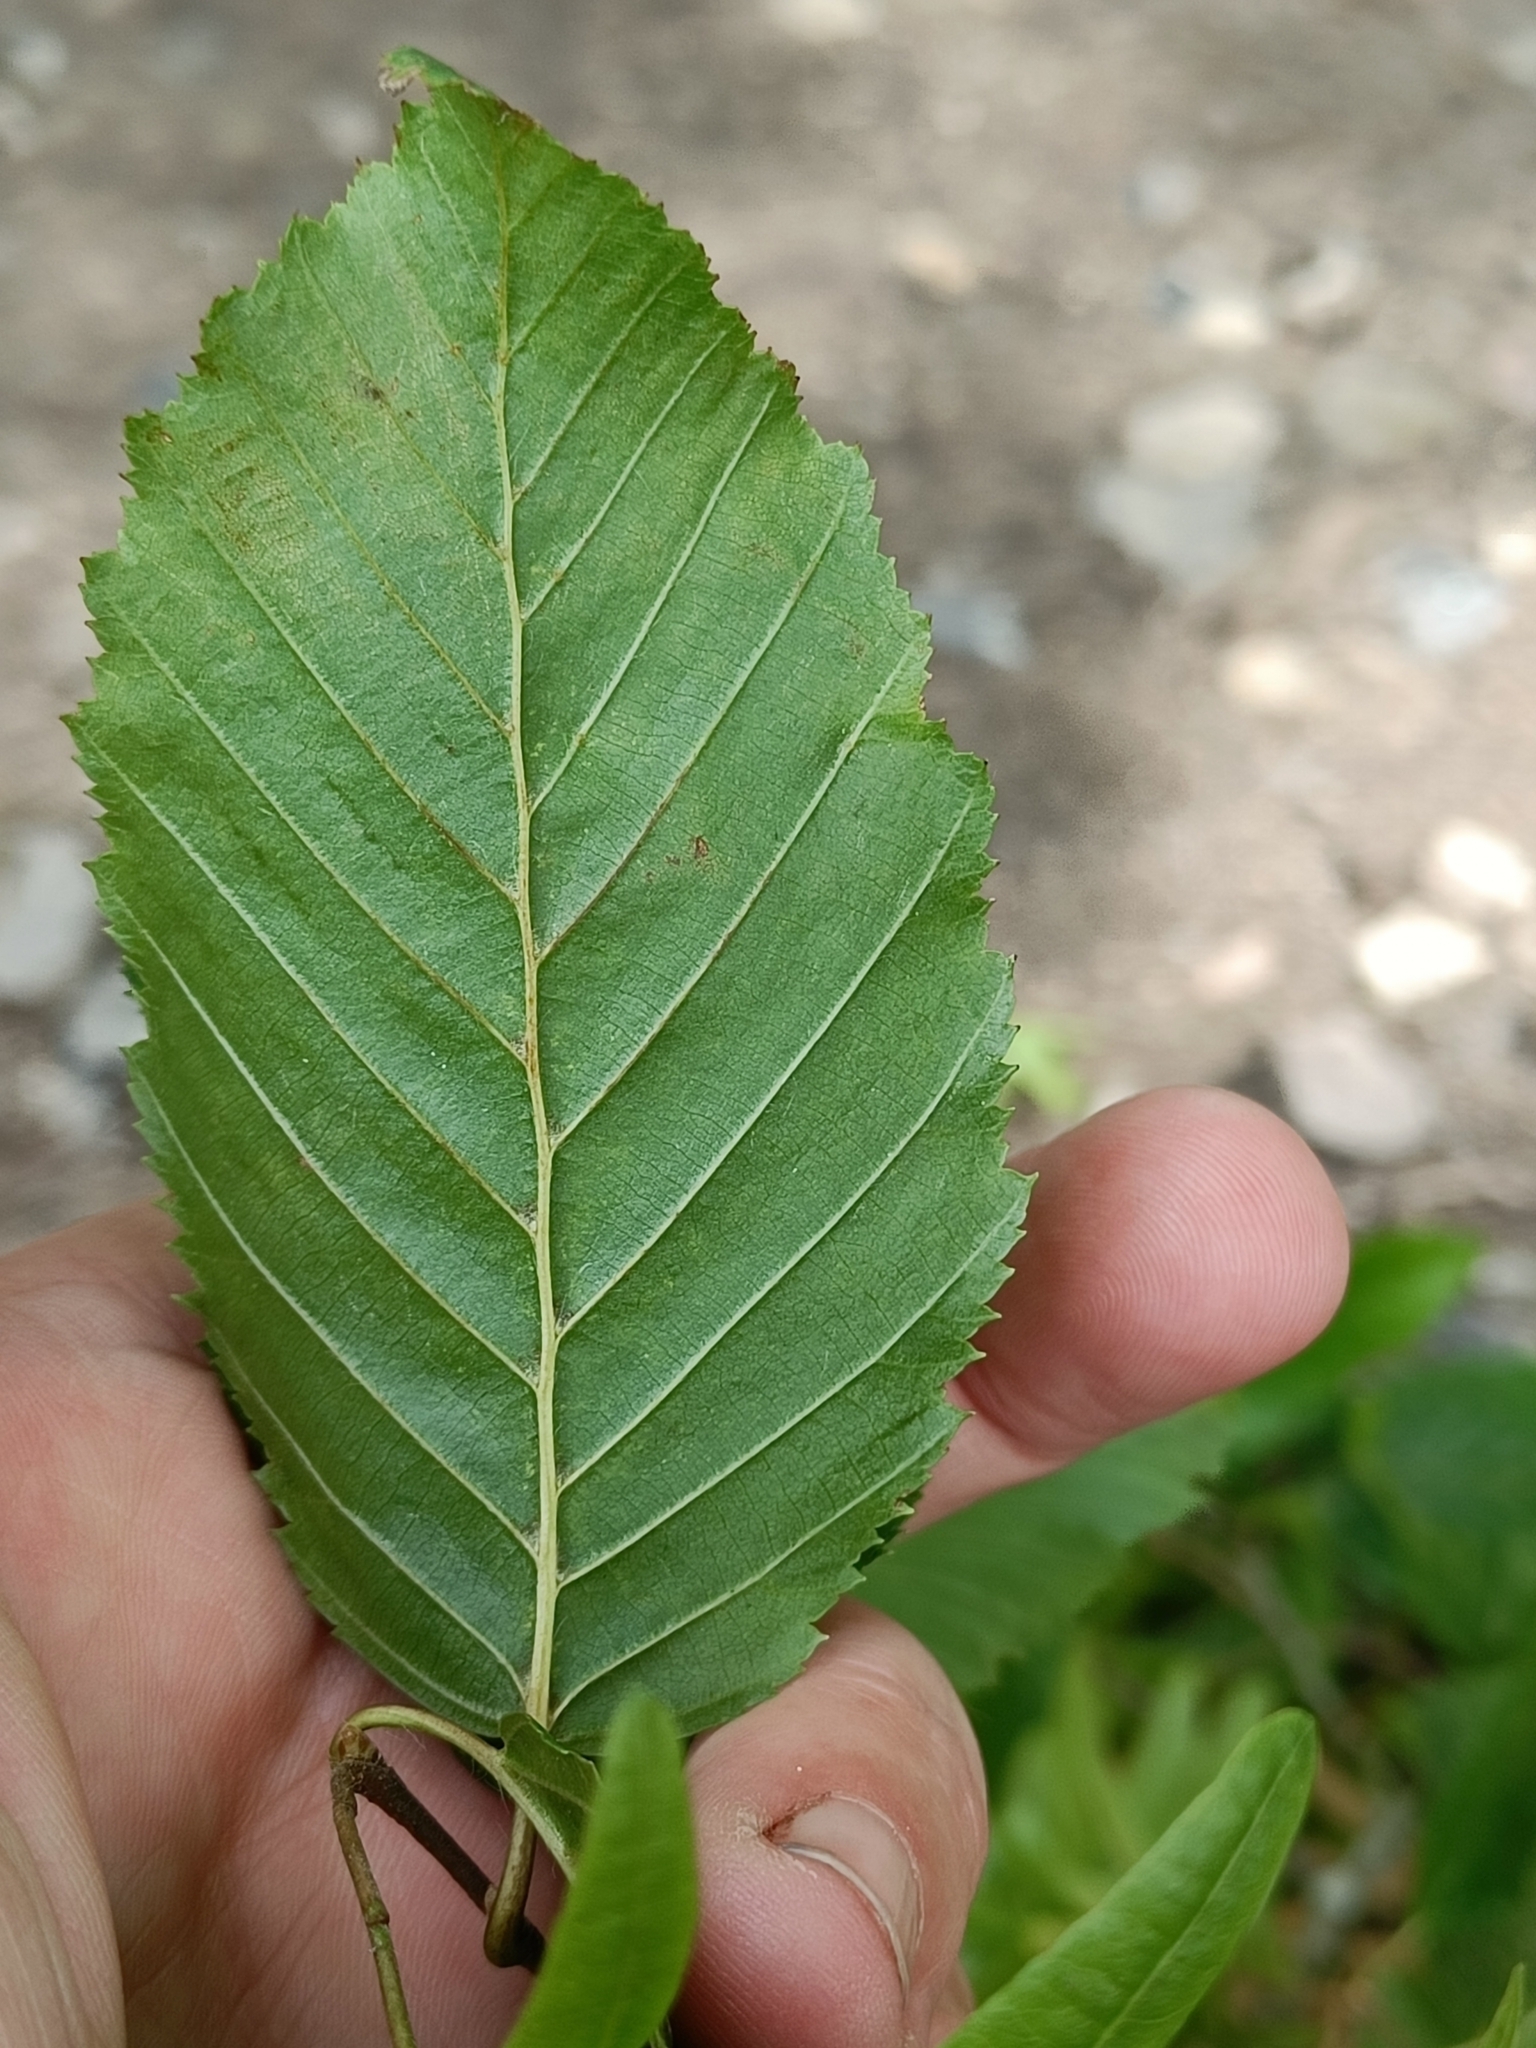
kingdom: Plantae
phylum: Tracheophyta
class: Magnoliopsida
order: Fagales
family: Betulaceae
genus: Carpinus
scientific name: Carpinus betulus
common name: Hornbeam
